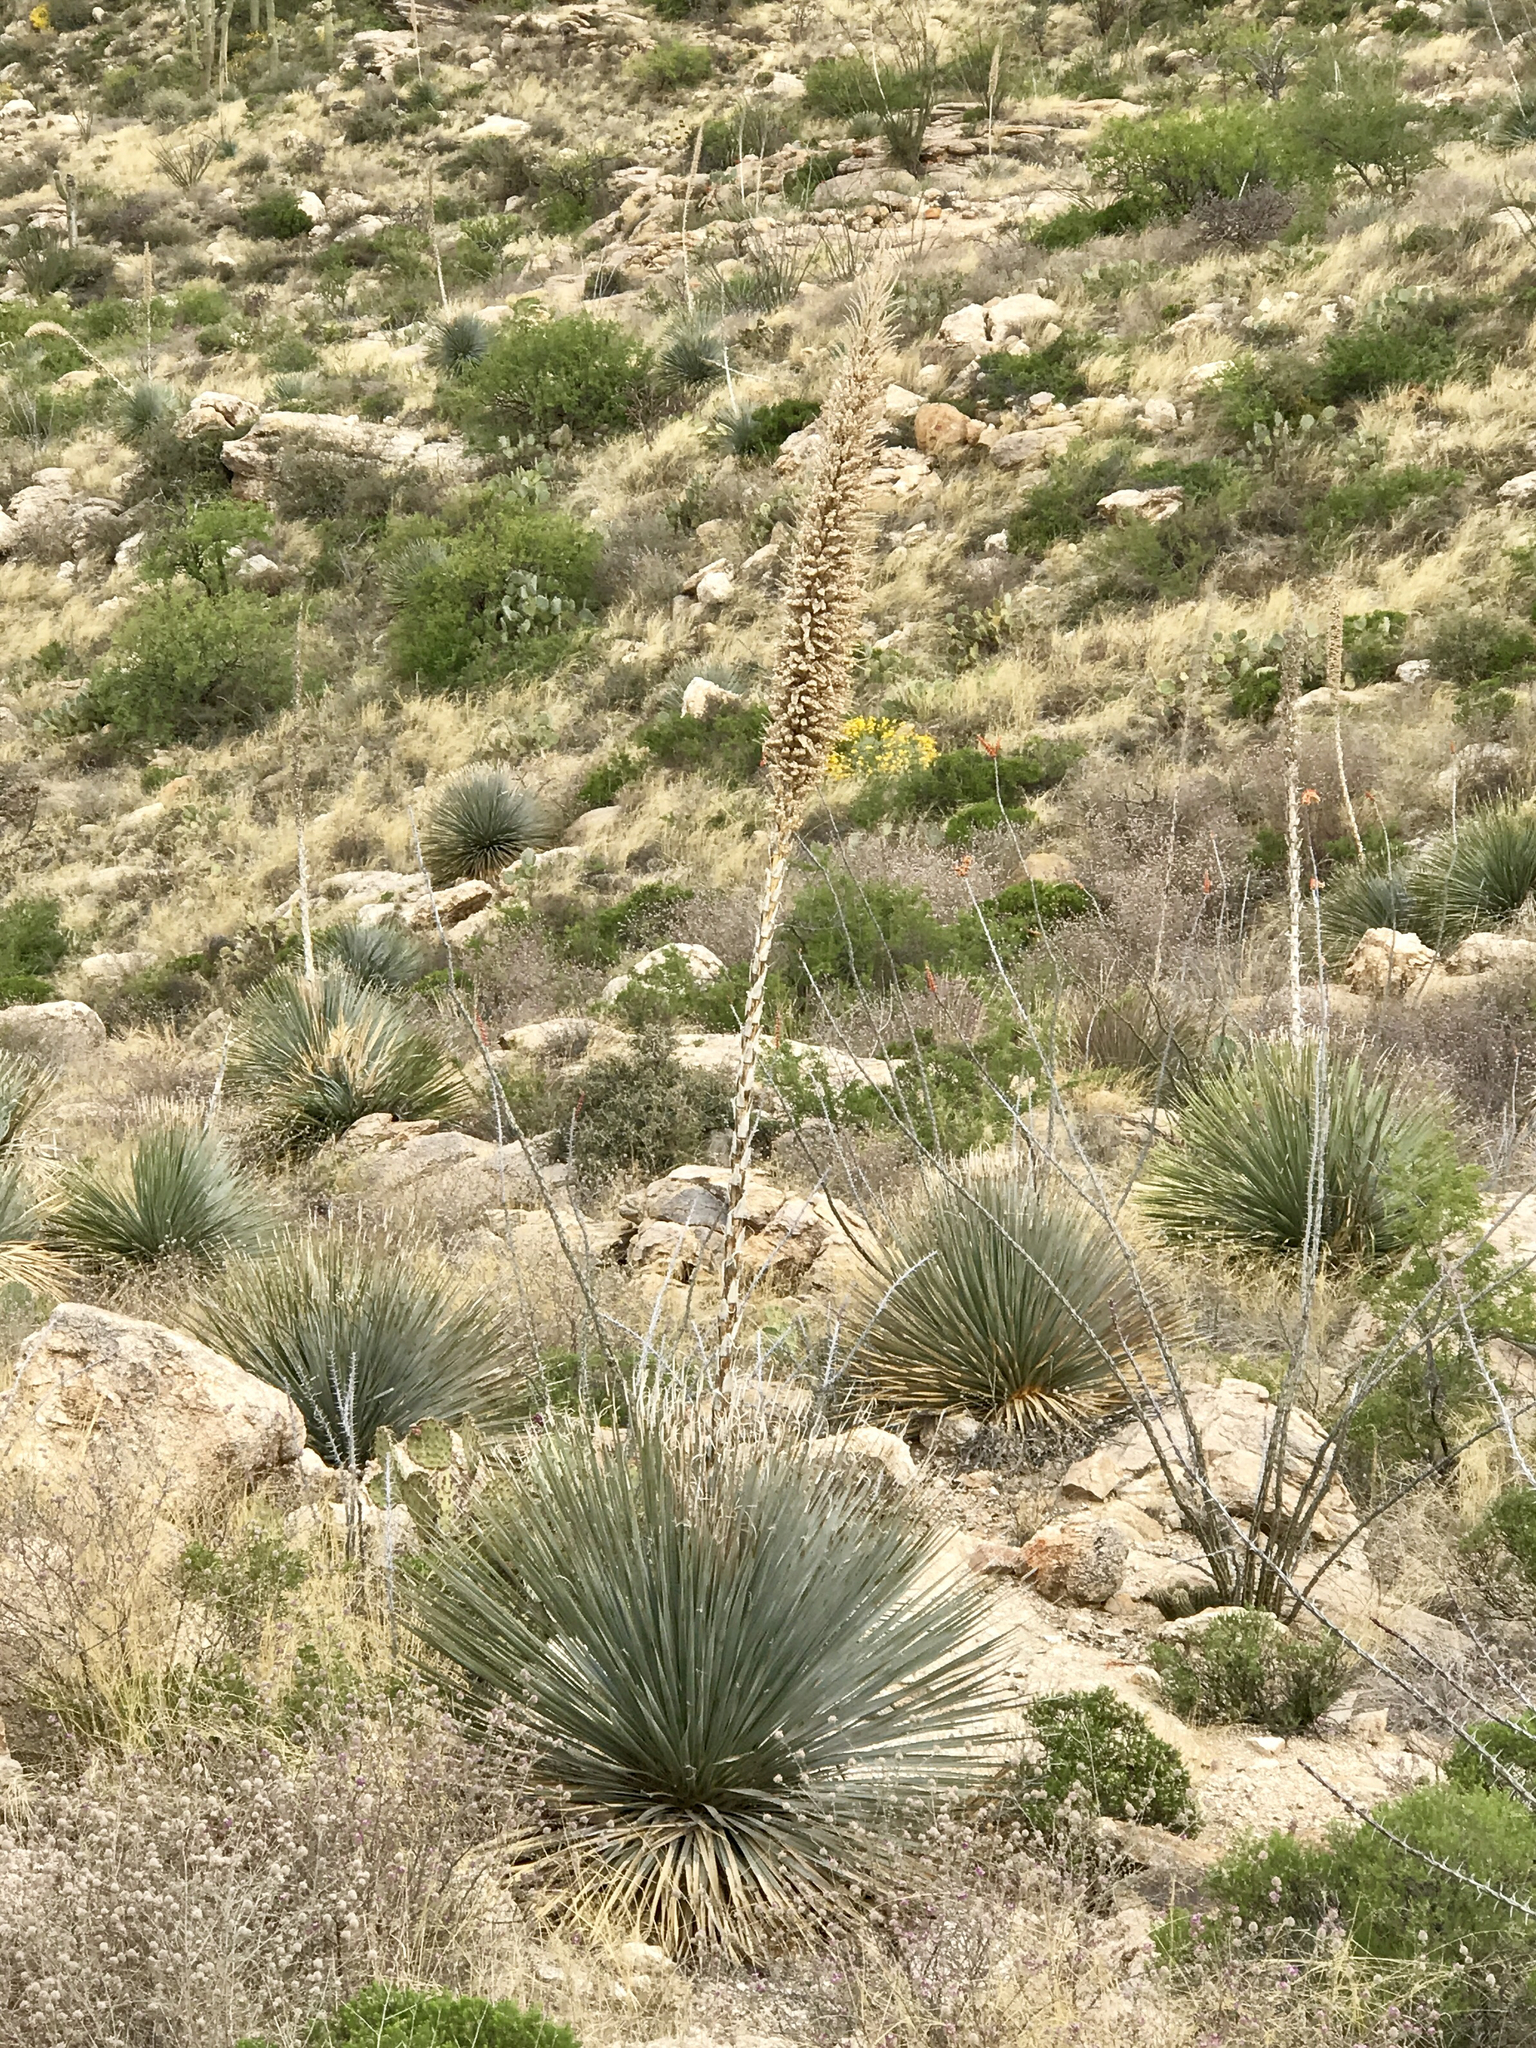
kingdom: Plantae
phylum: Tracheophyta
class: Liliopsida
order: Asparagales
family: Asparagaceae
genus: Dasylirion
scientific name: Dasylirion wheeleri
